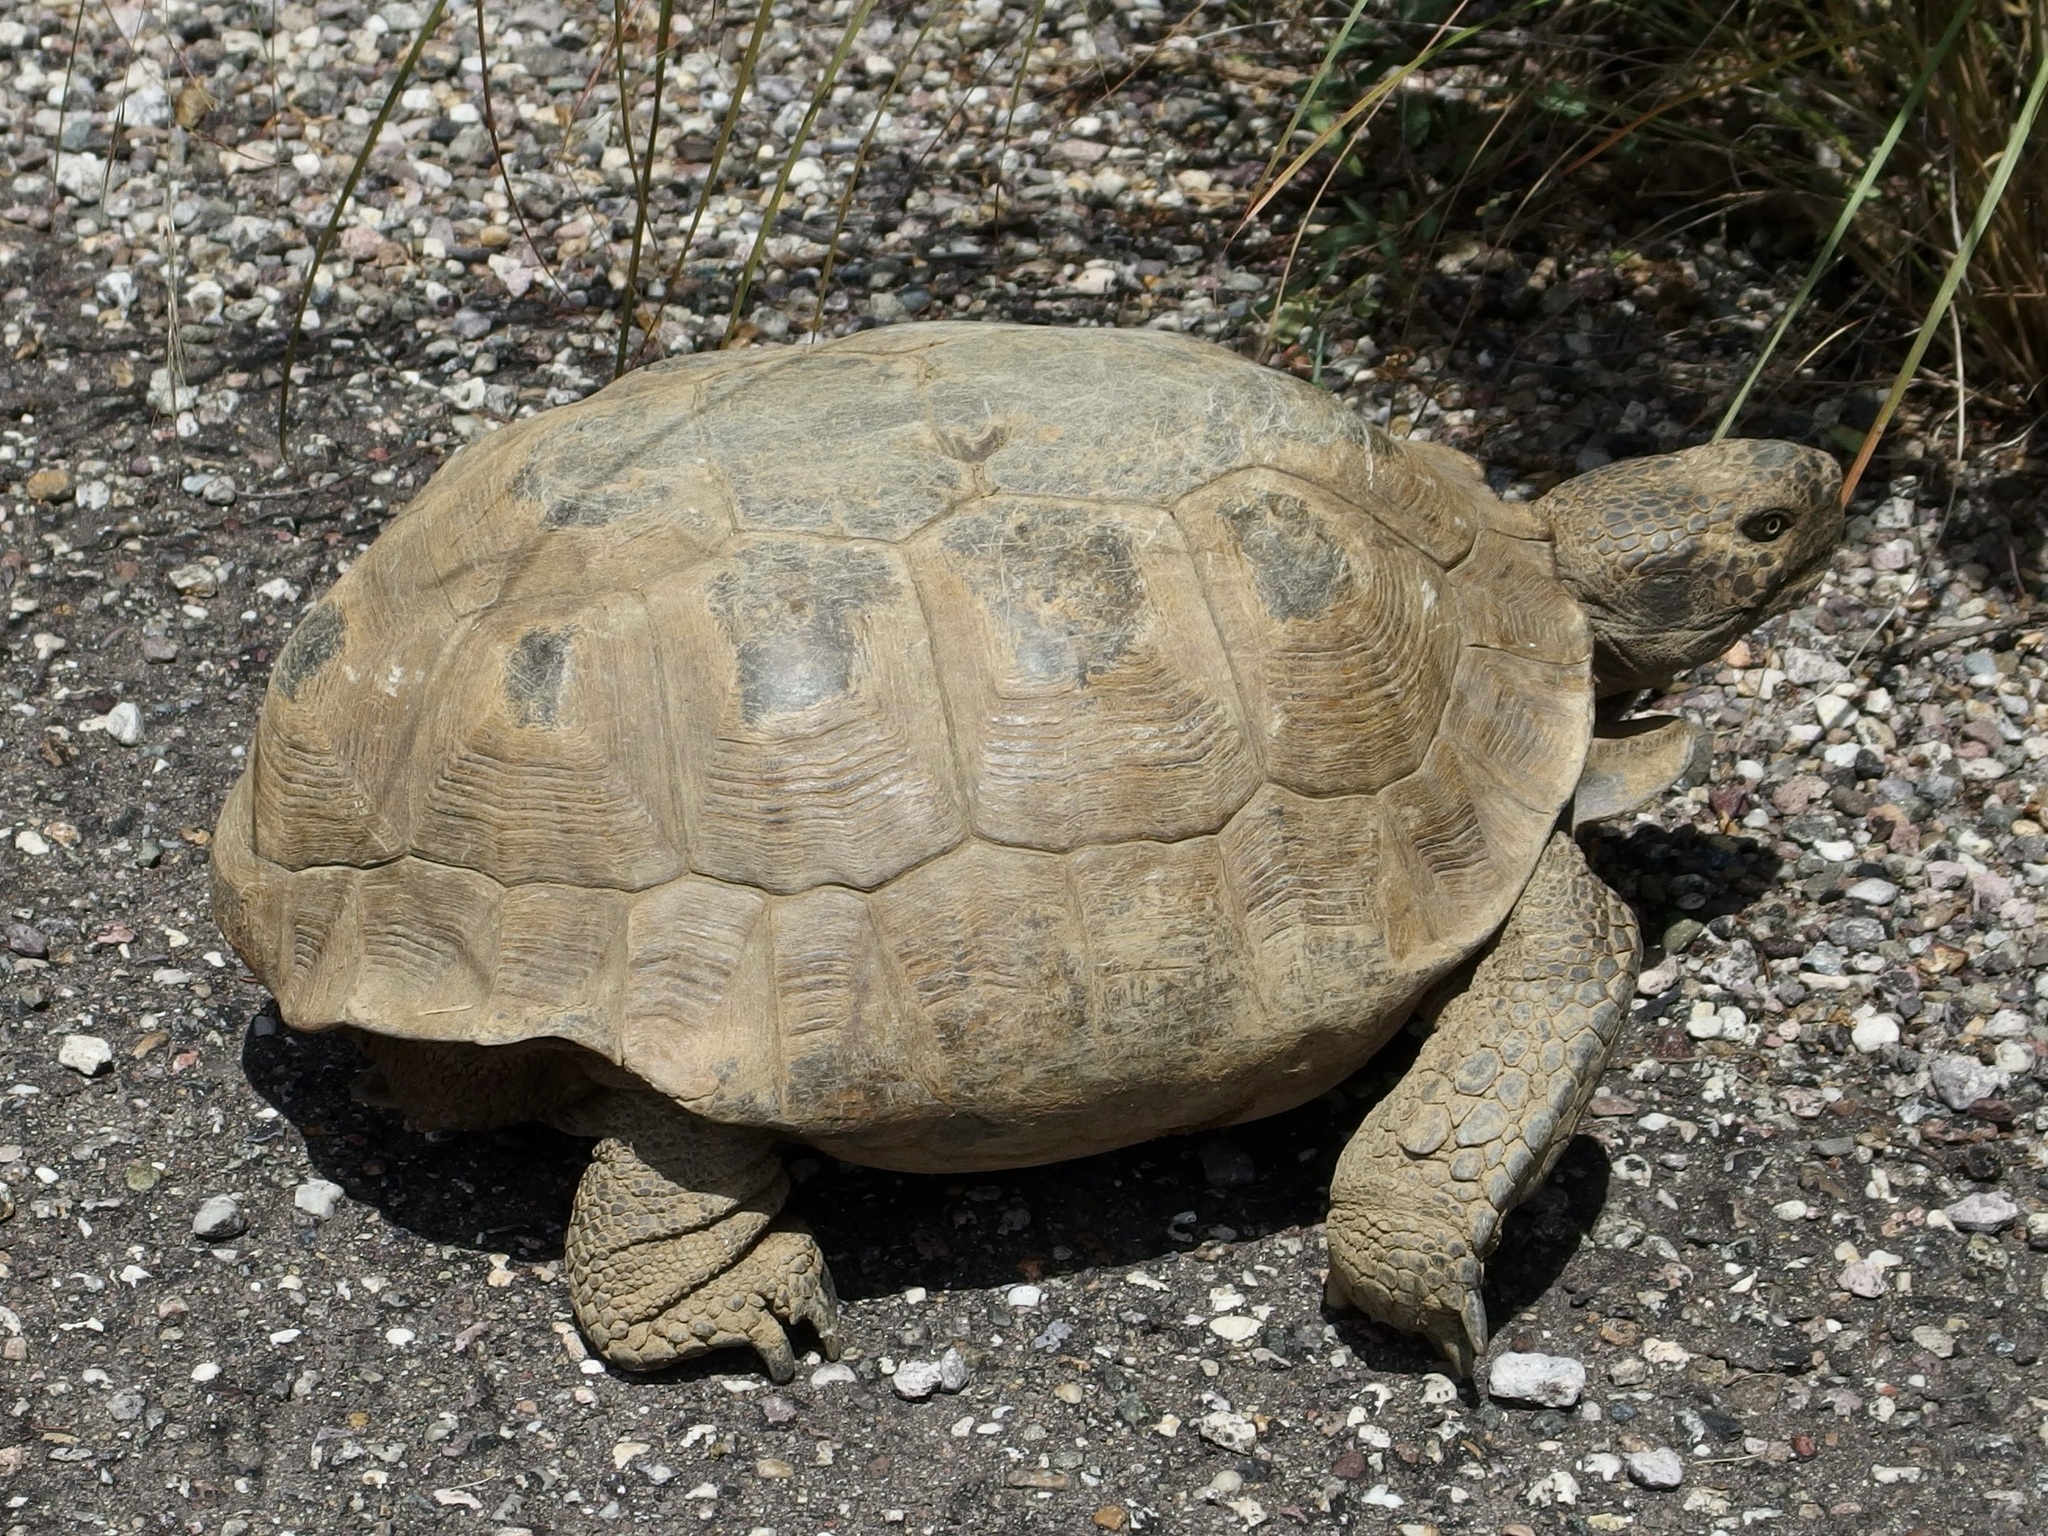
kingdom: Animalia
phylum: Chordata
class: Testudines
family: Testudinidae
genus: Gopherus
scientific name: Gopherus morafkai
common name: Sonoran desert tortoise
